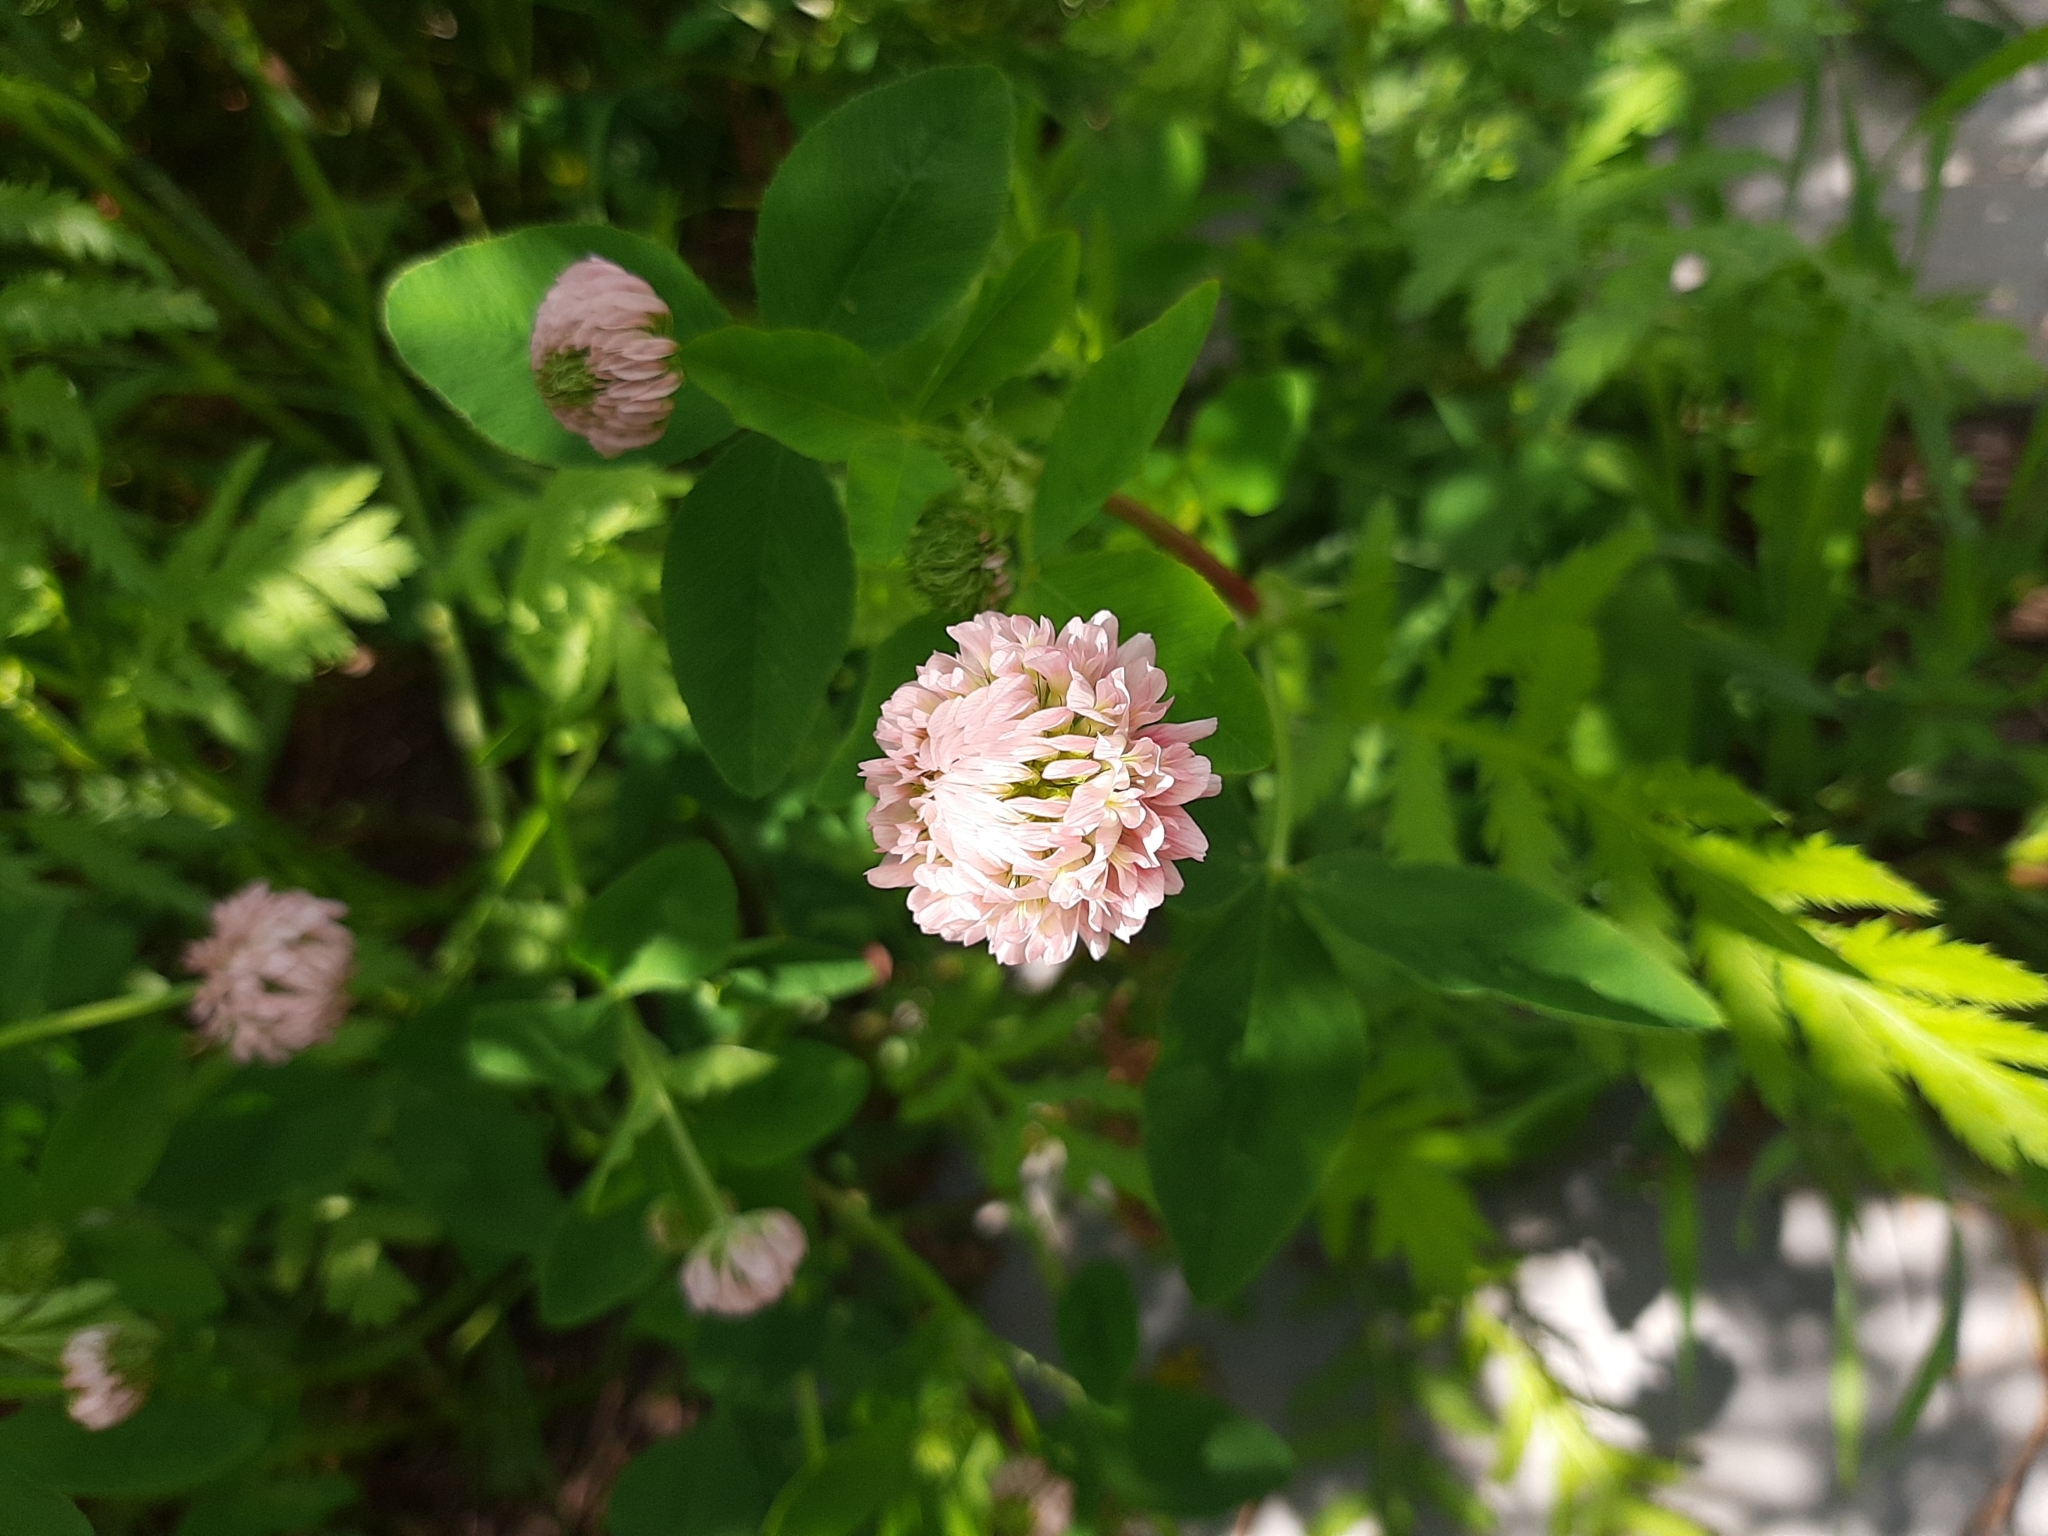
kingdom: Plantae
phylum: Tracheophyta
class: Magnoliopsida
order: Fabales
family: Fabaceae
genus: Trifolium
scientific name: Trifolium hybridum
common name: Alsike clover
